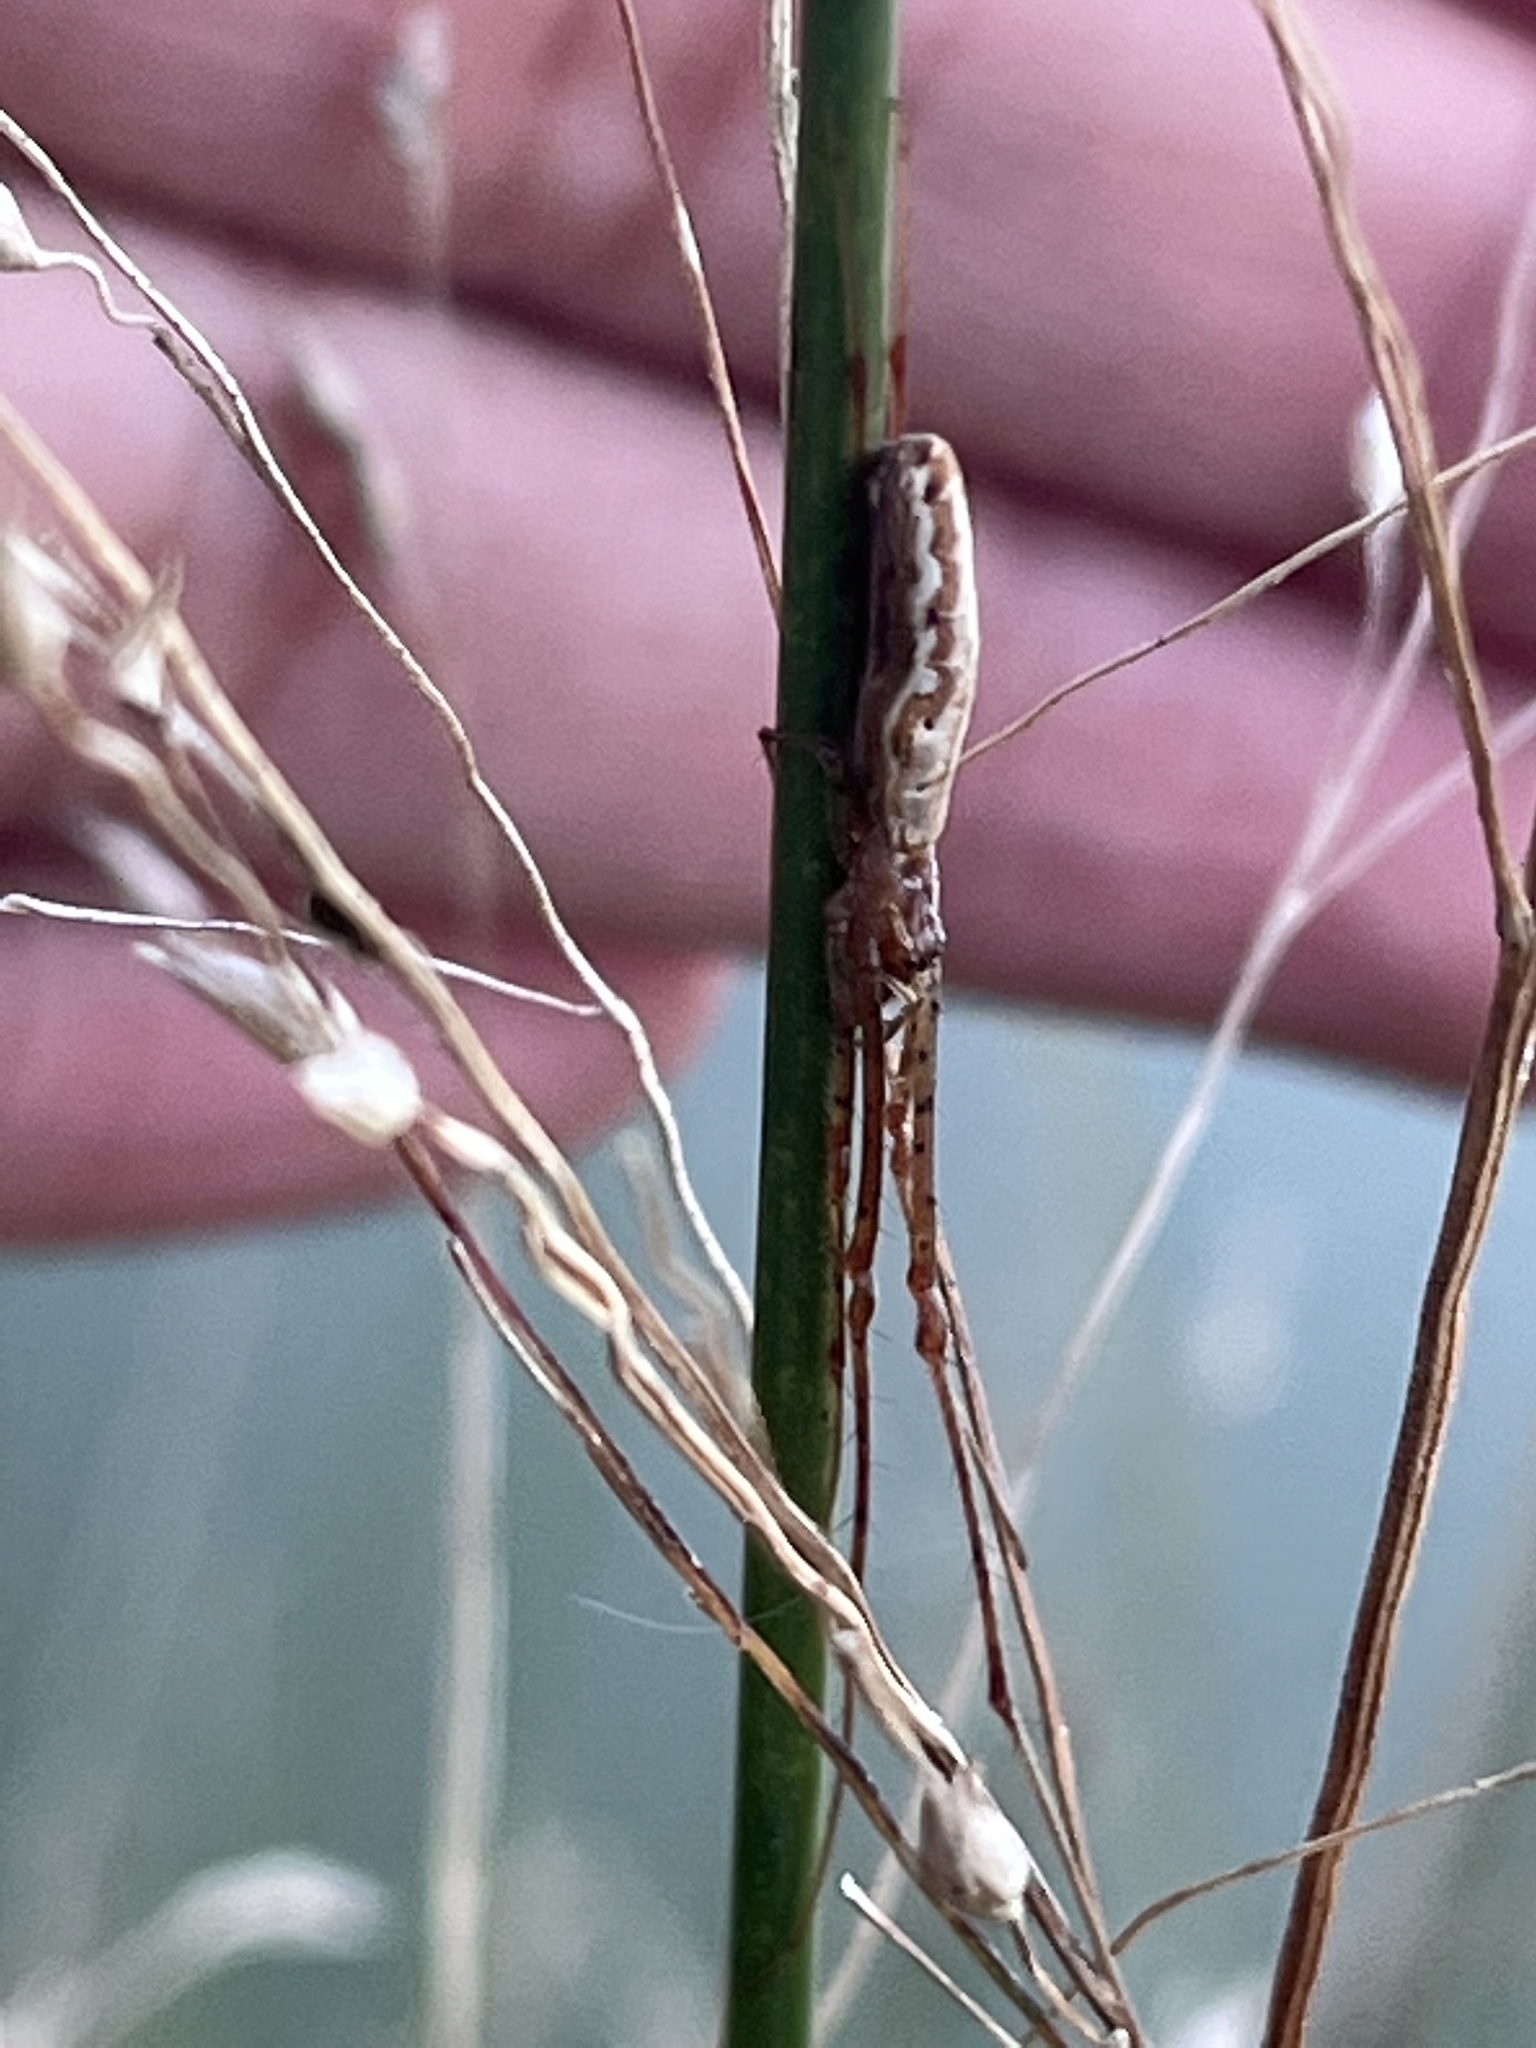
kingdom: Animalia
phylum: Arthropoda
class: Arachnida
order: Araneae
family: Tetragnathidae
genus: Tetragnatha
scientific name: Tetragnatha
